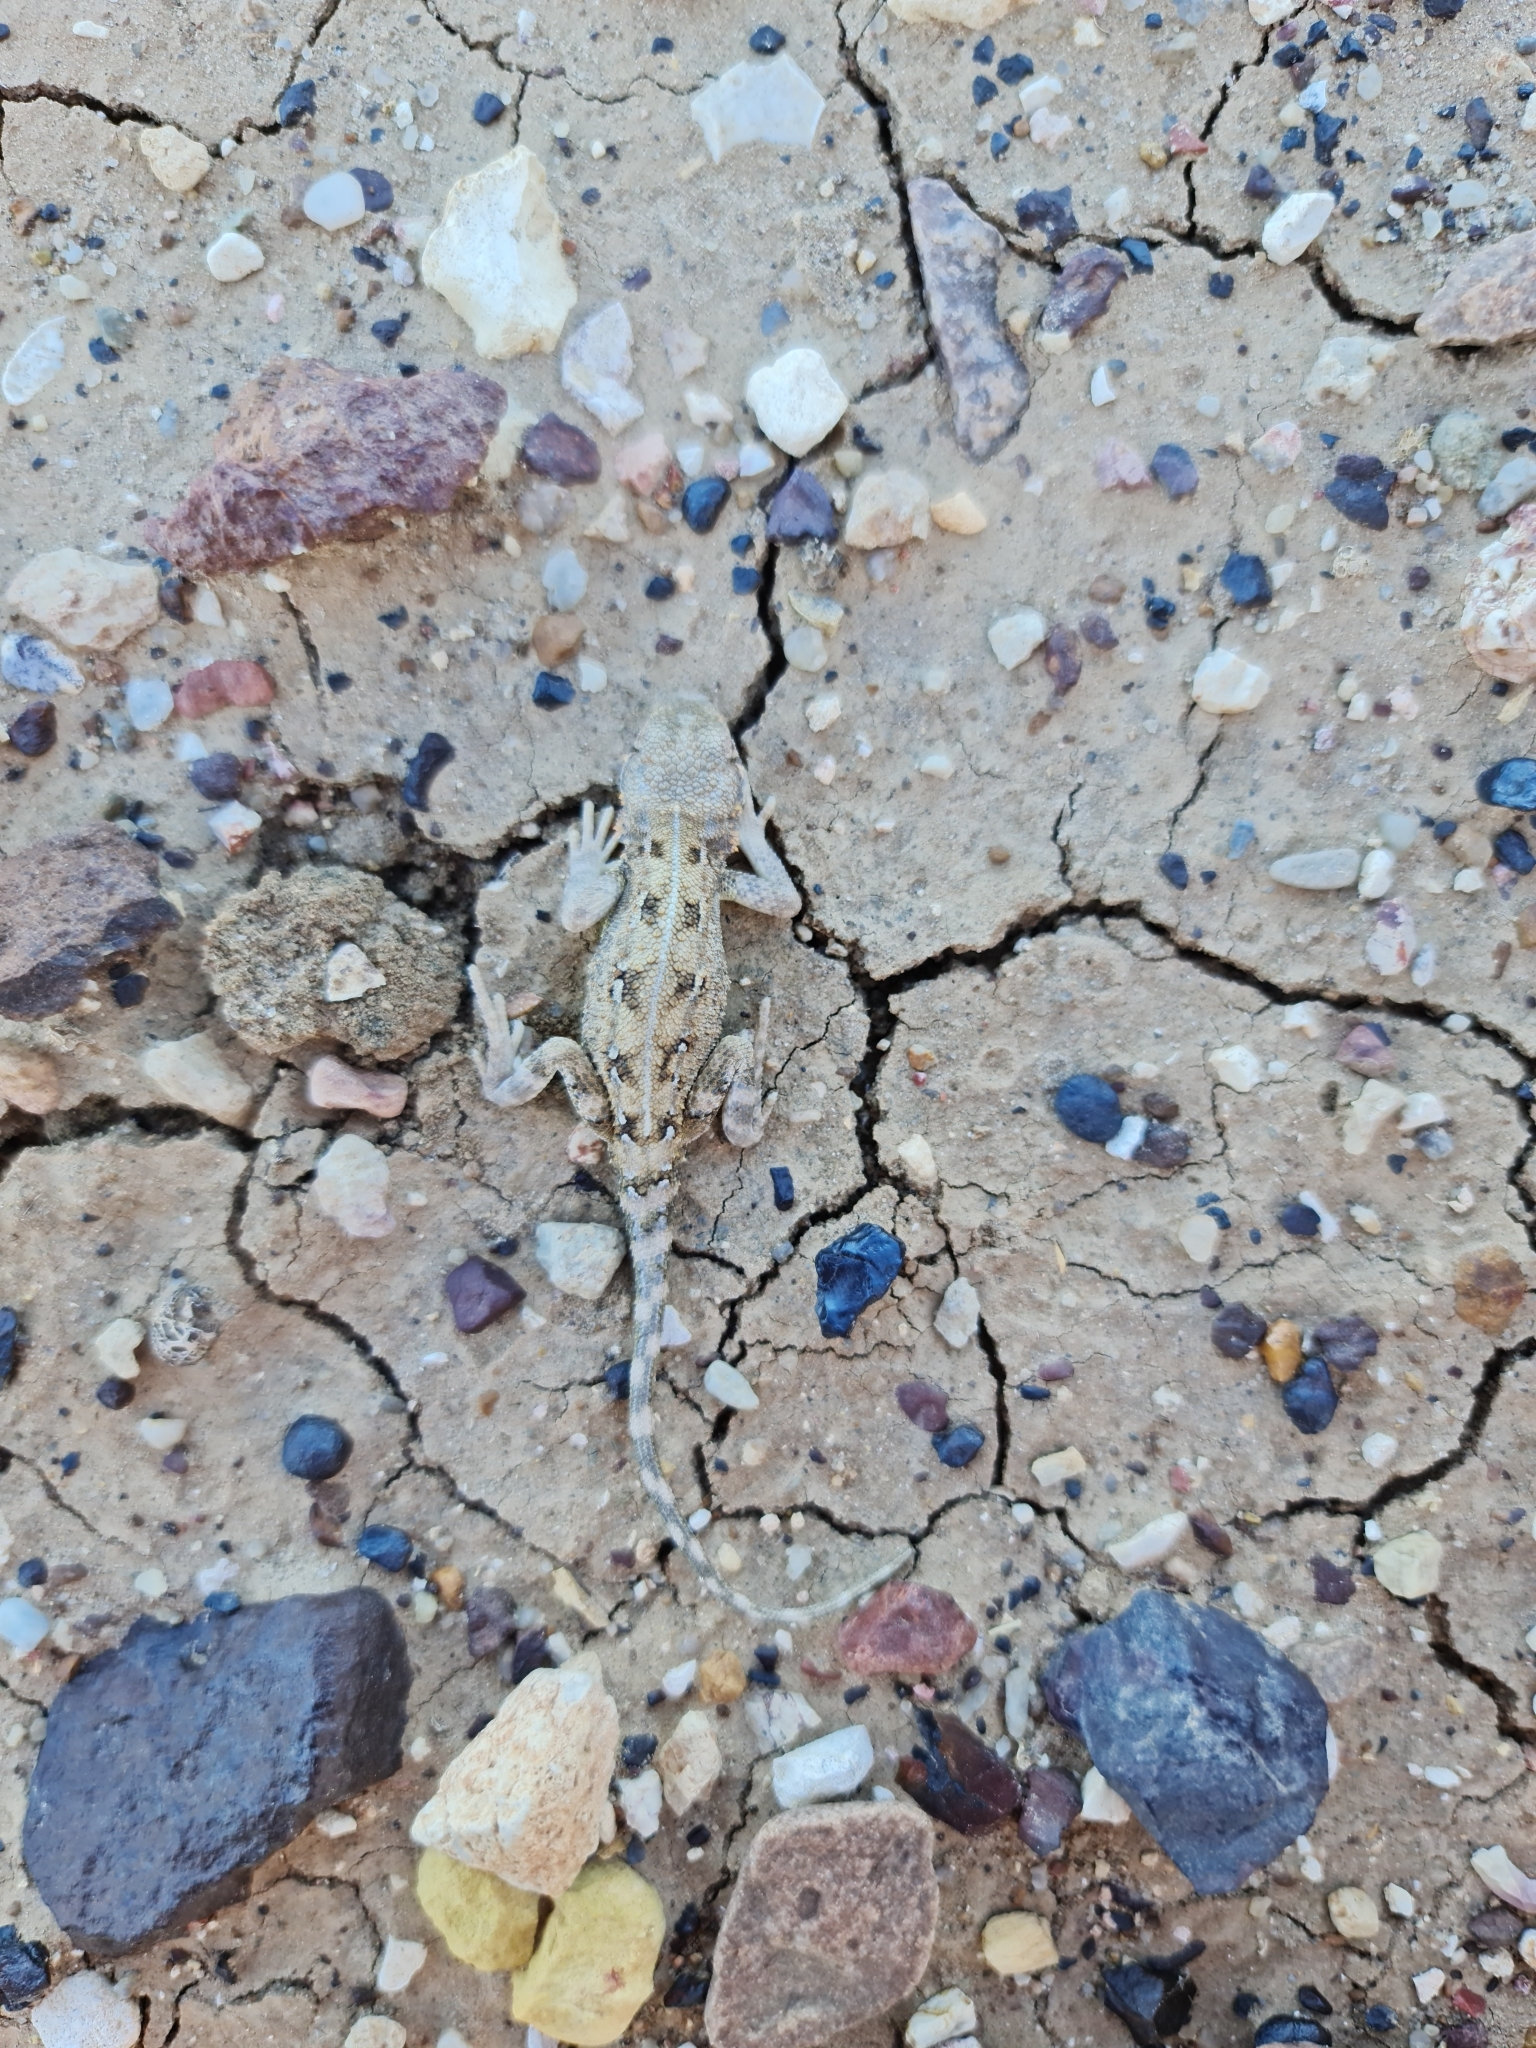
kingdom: Animalia
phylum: Chordata
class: Squamata
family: Agamidae
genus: Tympanocryptis
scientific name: Tympanocryptis tetraporophora
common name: Eyrean earless dragon
